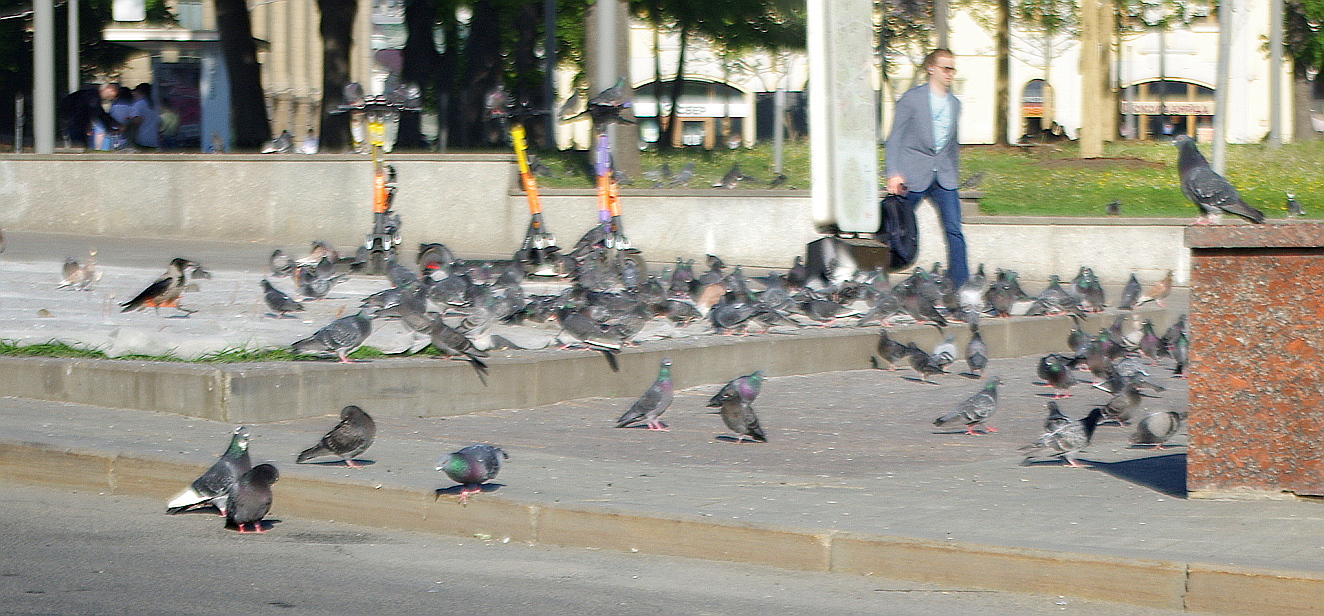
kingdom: Animalia
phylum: Chordata
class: Aves
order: Columbiformes
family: Columbidae
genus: Columba
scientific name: Columba livia
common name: Rock pigeon
